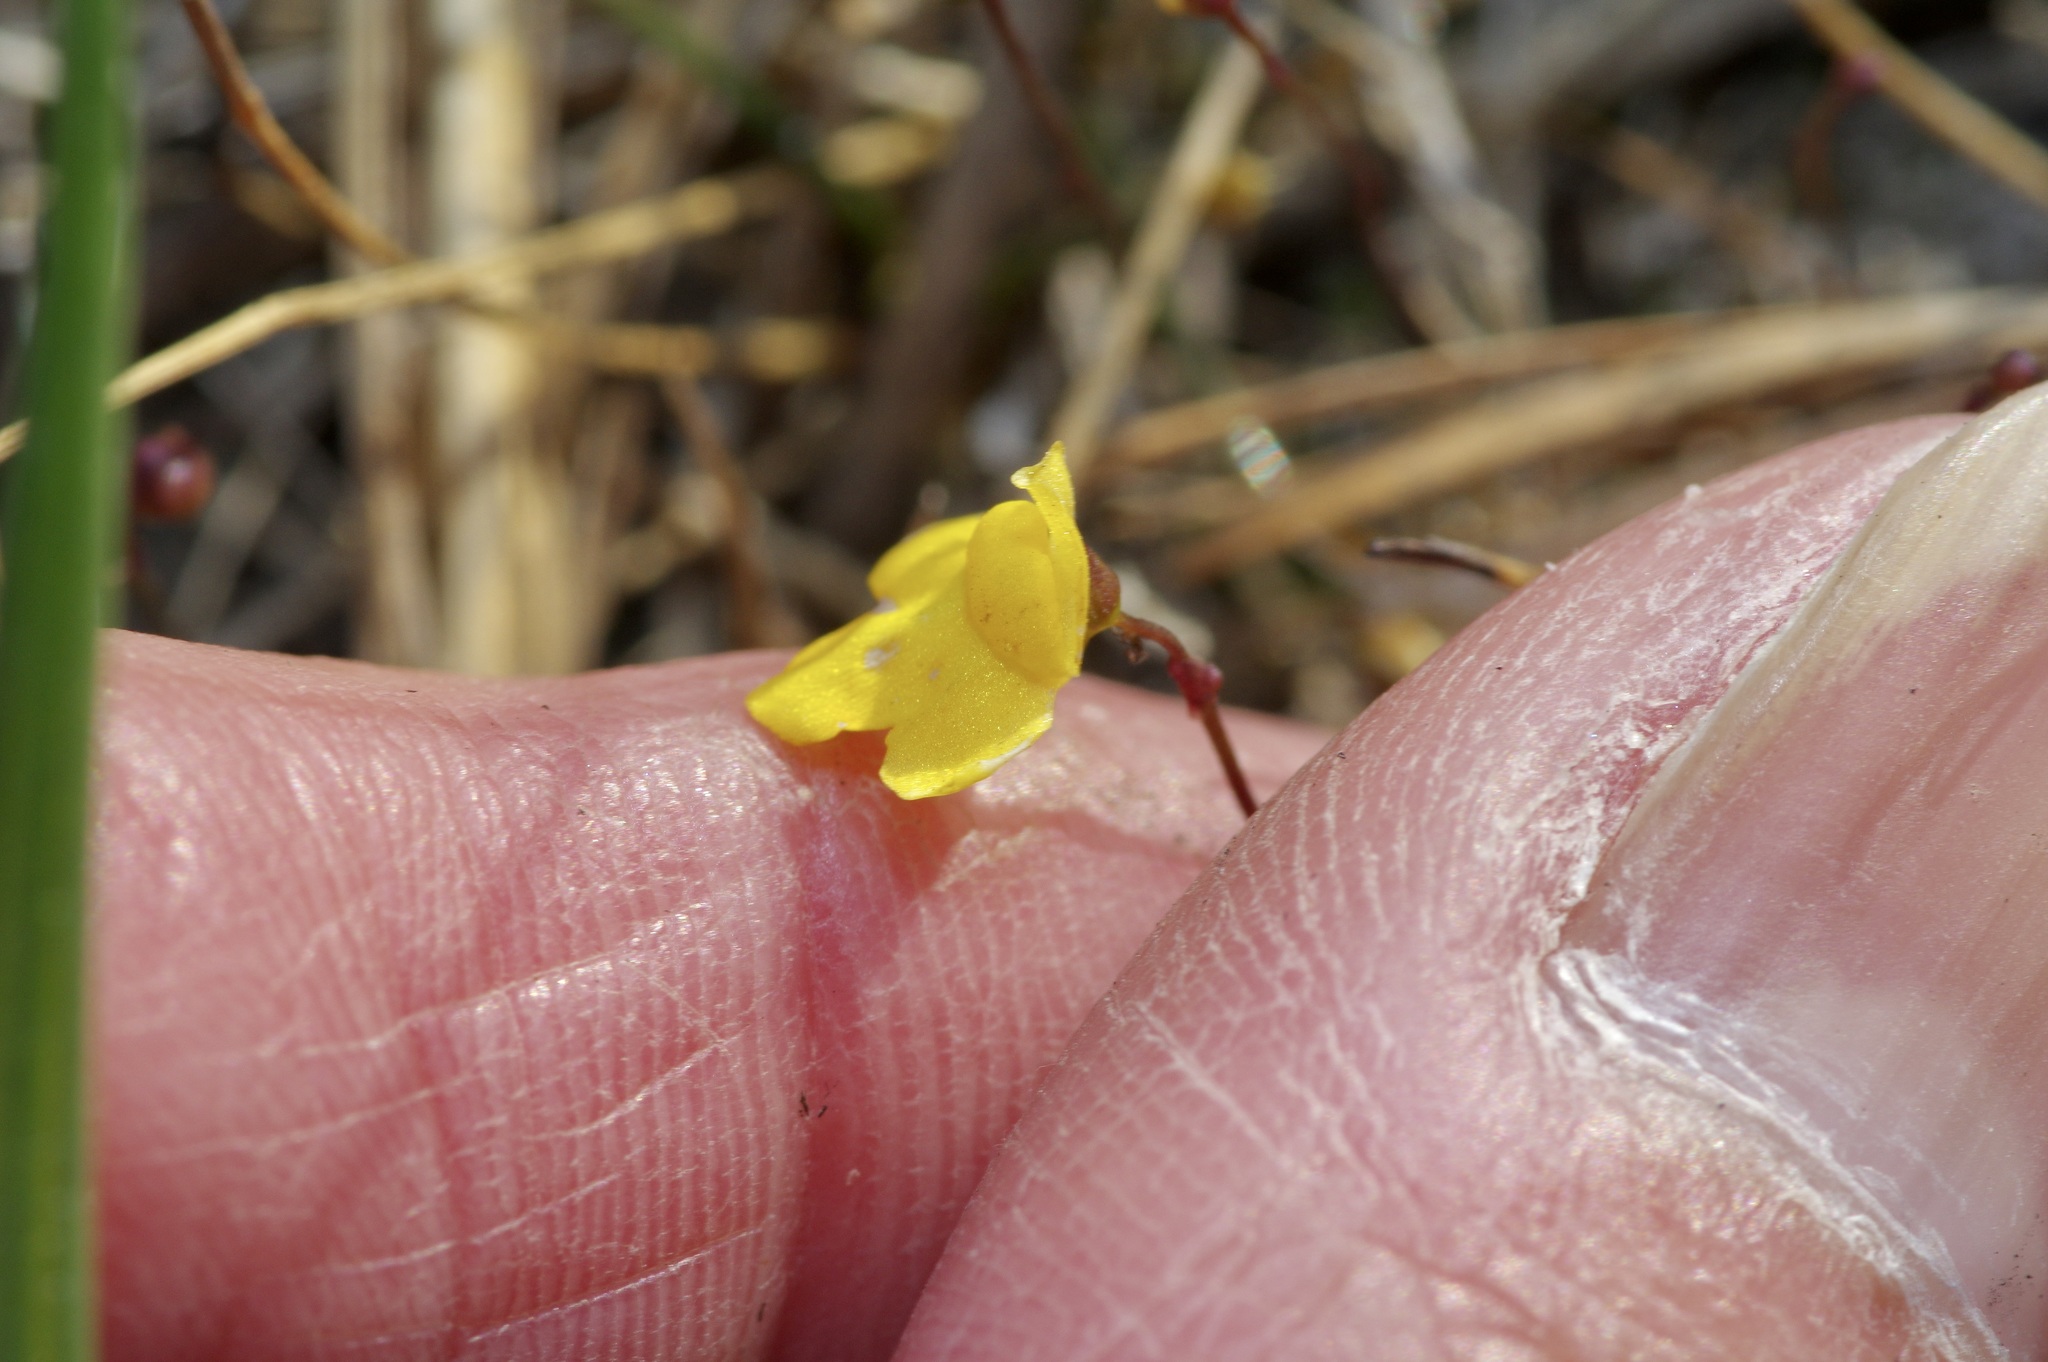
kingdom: Plantae
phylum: Tracheophyta
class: Magnoliopsida
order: Lamiales
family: Lentibulariaceae
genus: Utricularia
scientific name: Utricularia subulata
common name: Tiny bladderwort
